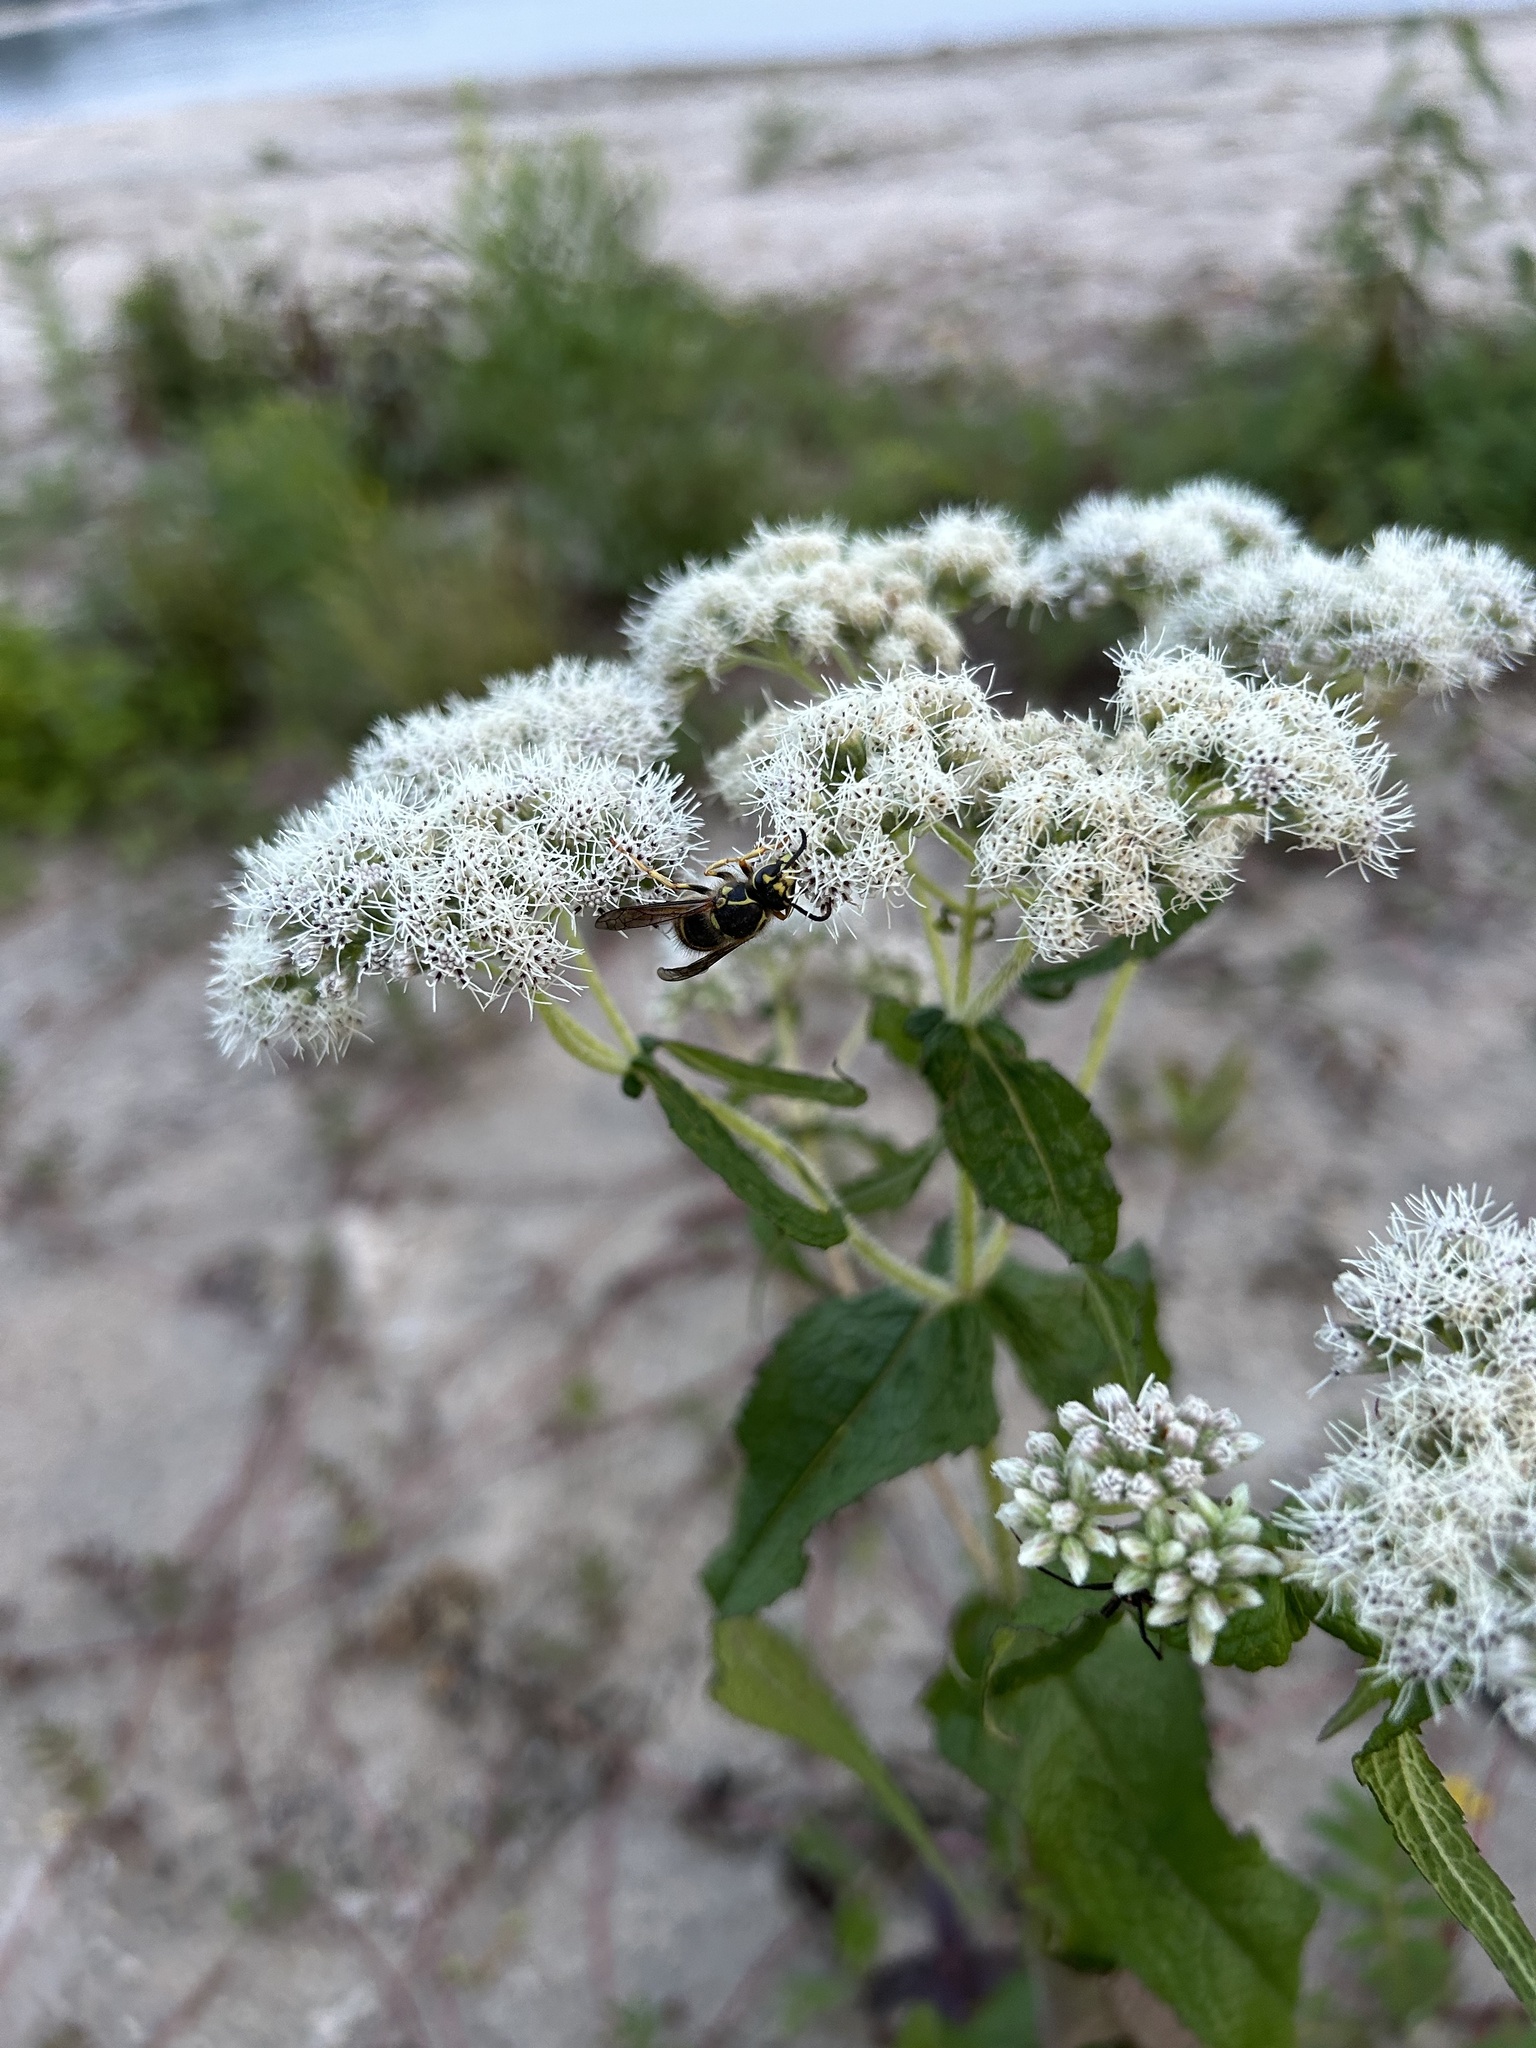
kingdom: Animalia
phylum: Arthropoda
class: Insecta
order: Hymenoptera
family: Vespidae
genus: Dolichovespula
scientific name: Dolichovespula arenaria
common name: Aerial yellowjacket
